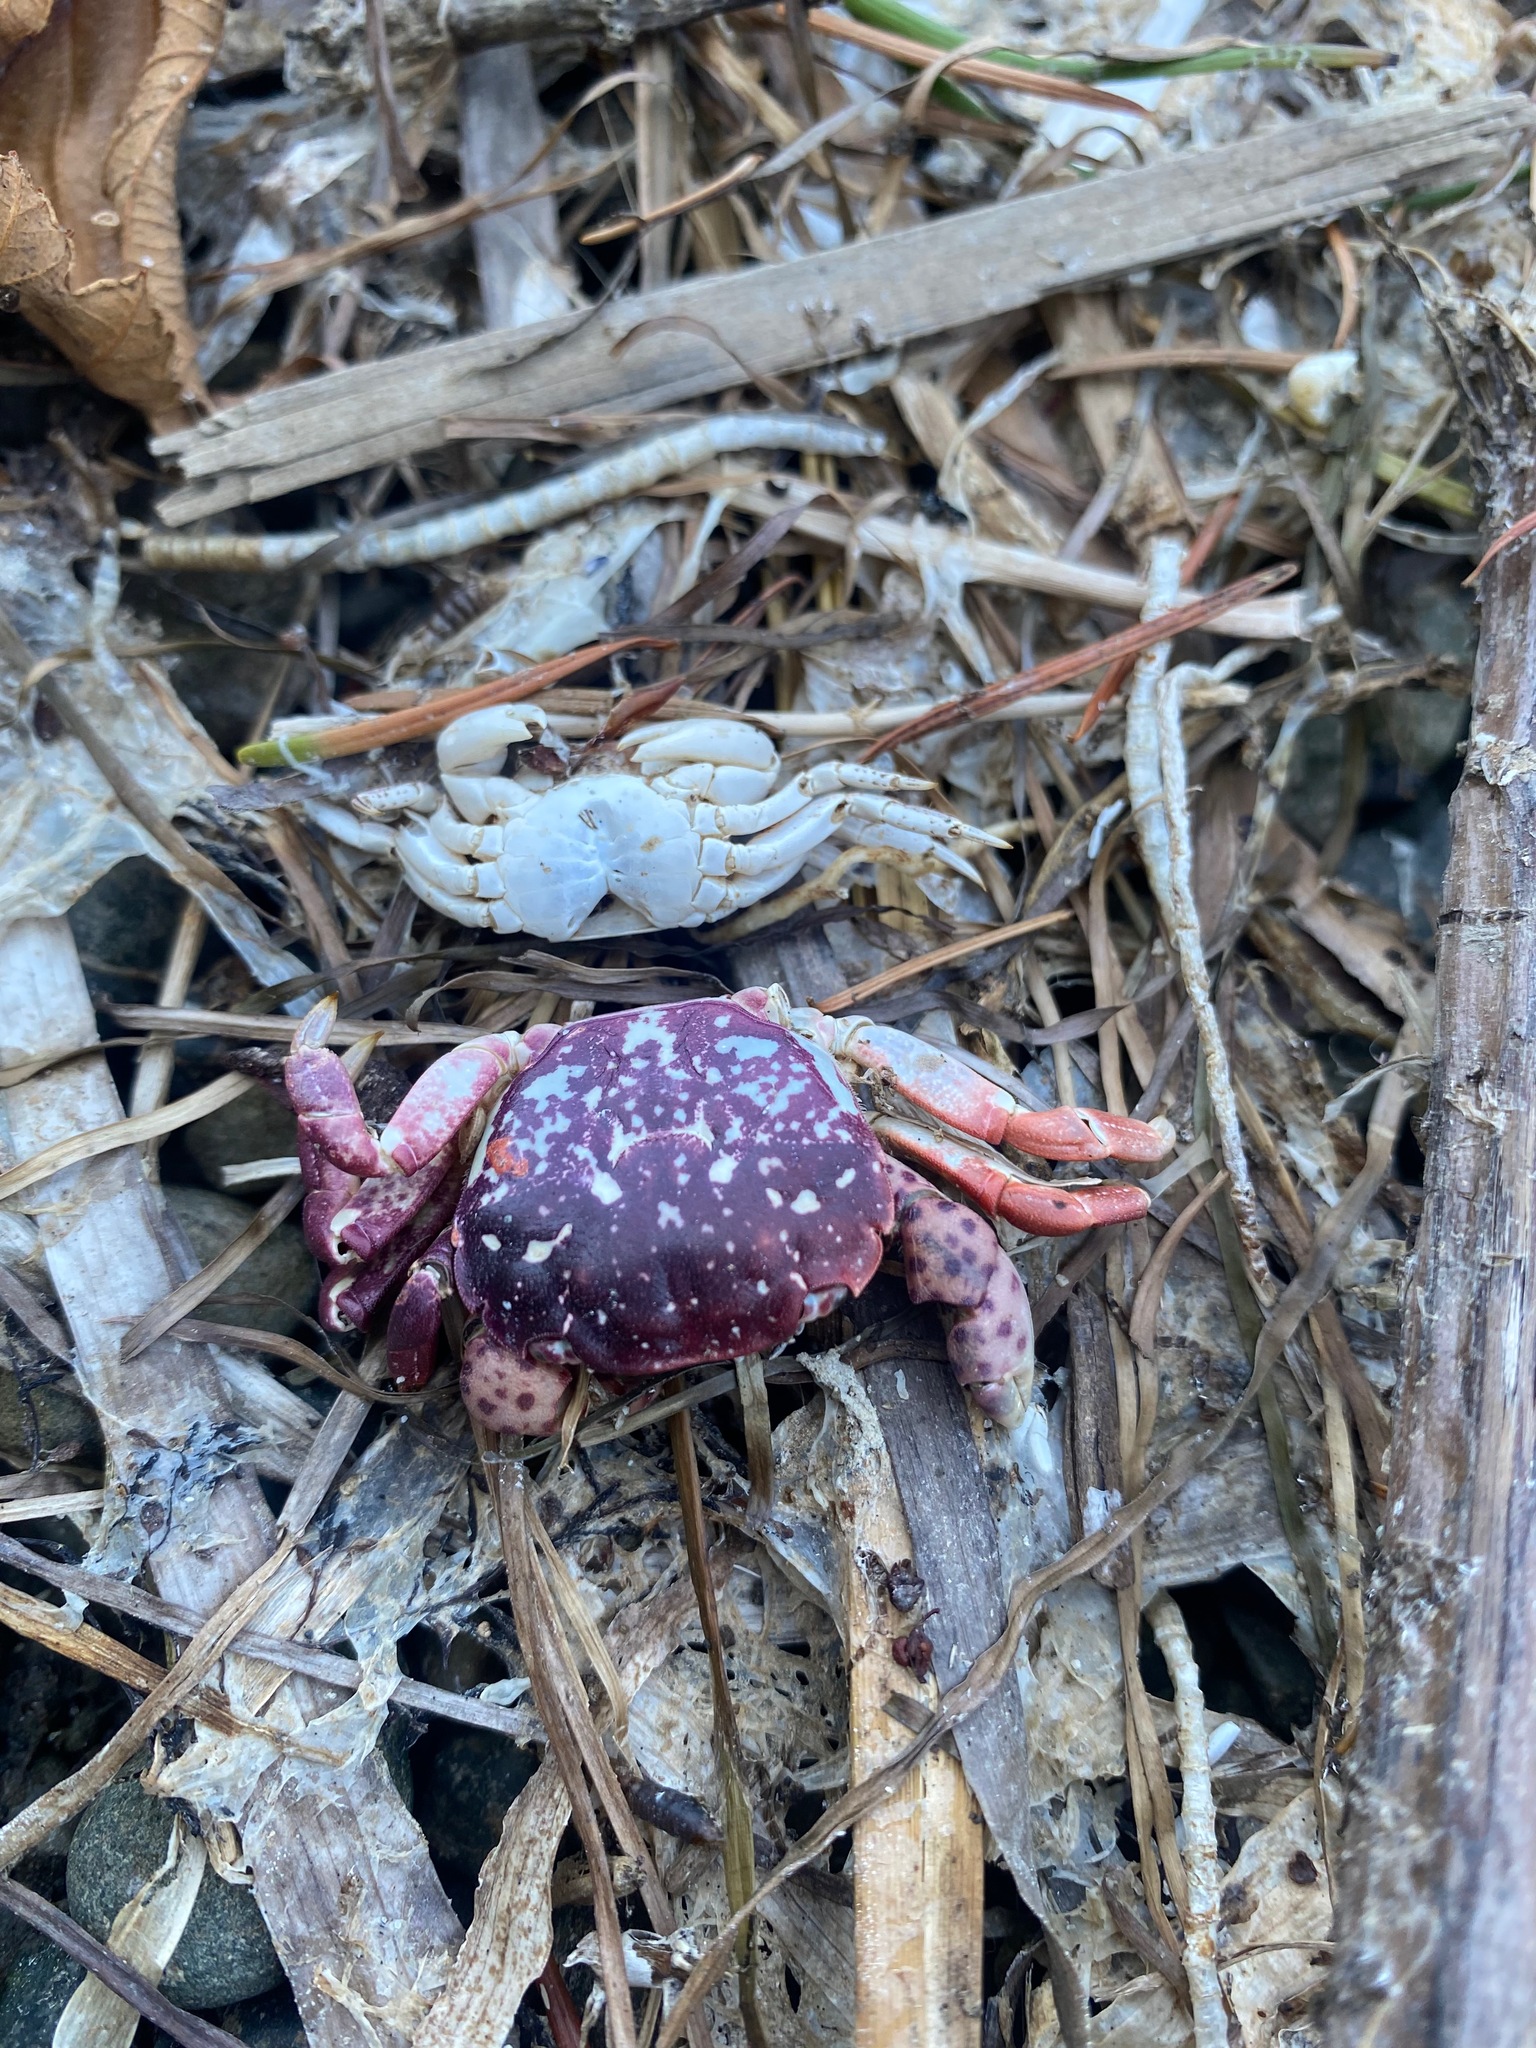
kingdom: Animalia
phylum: Arthropoda
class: Malacostraca
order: Decapoda
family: Varunidae
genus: Hemigrapsus
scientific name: Hemigrapsus nudus
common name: Purple shore crab
